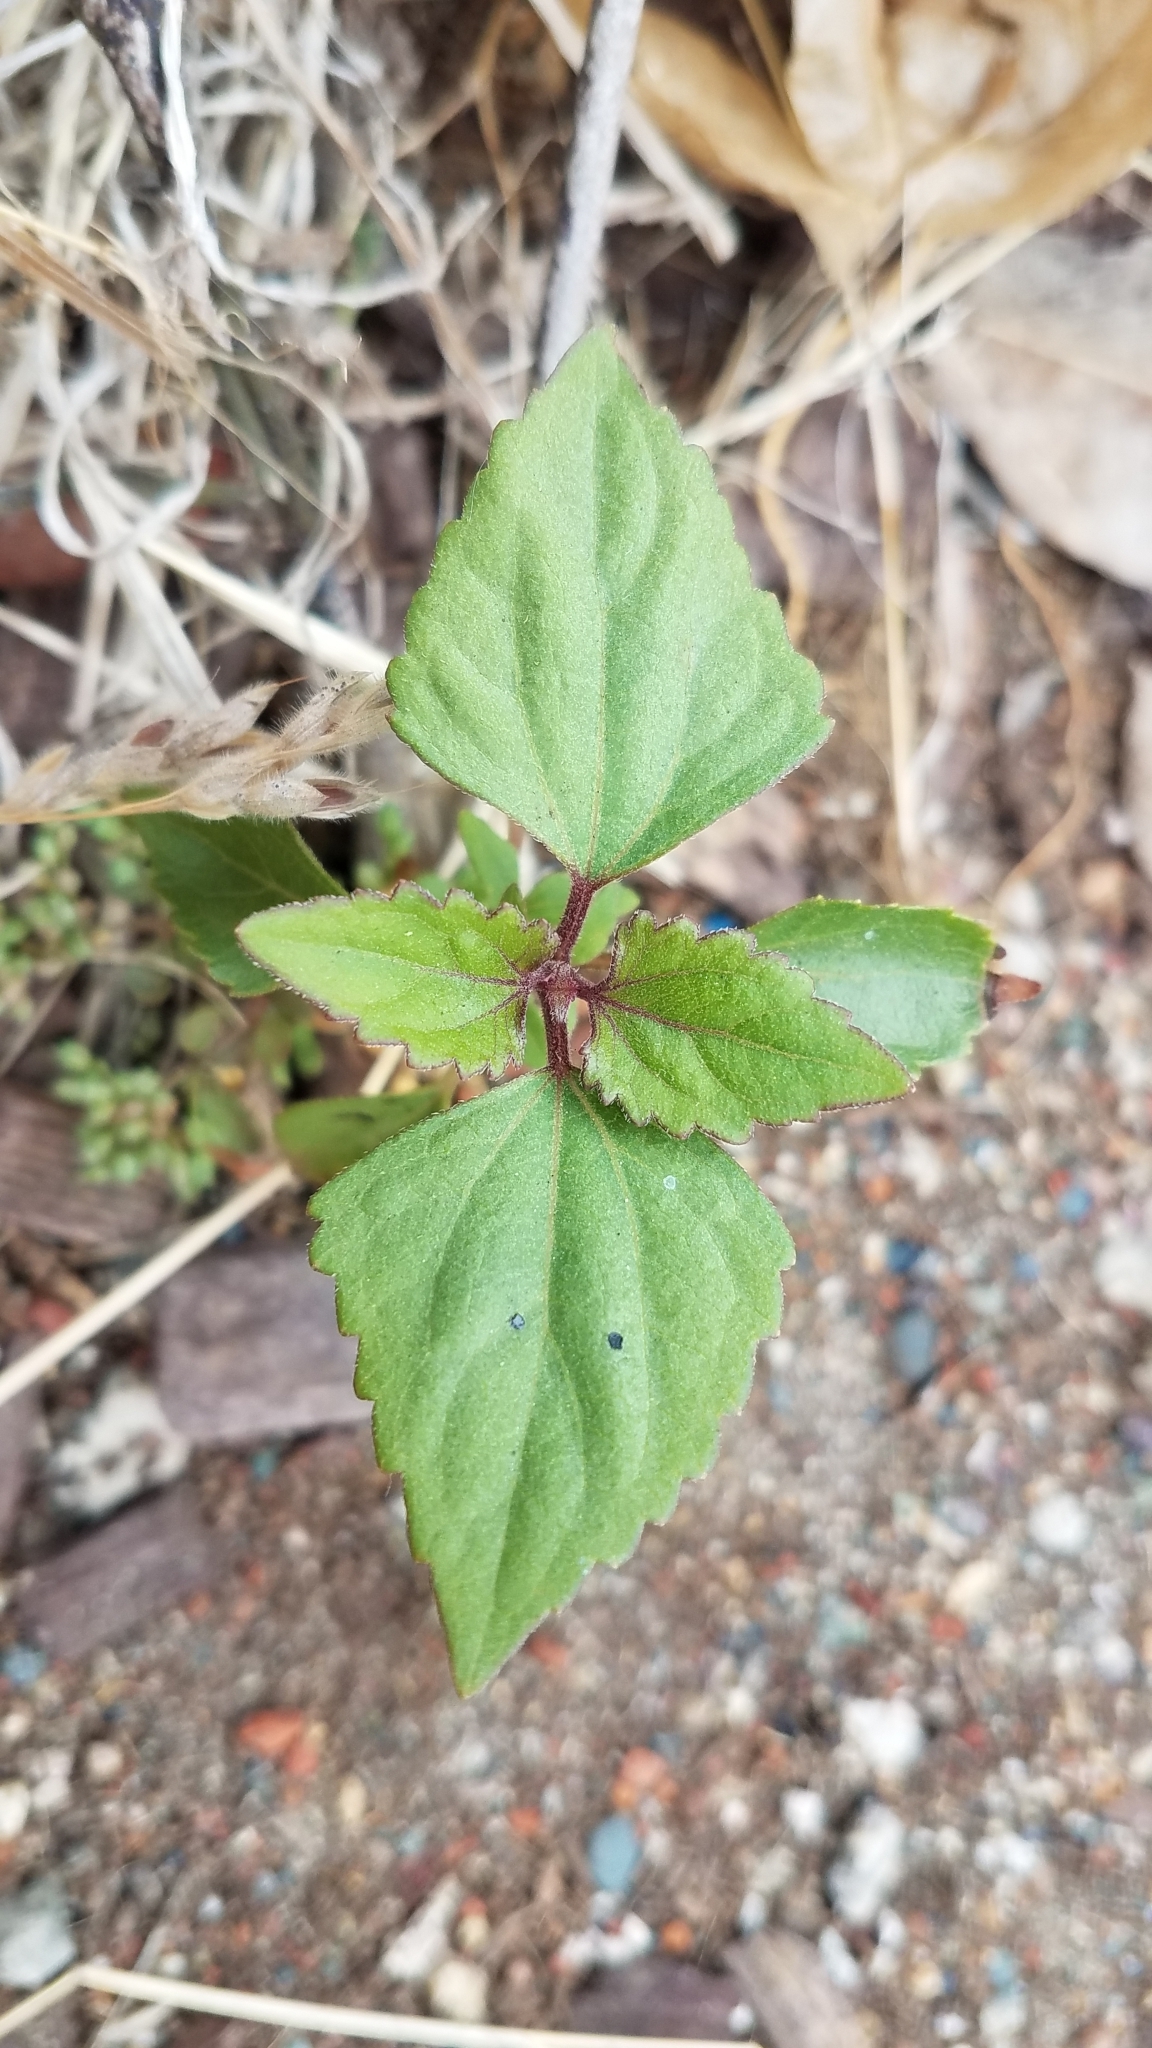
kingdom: Plantae
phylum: Tracheophyta
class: Magnoliopsida
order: Asterales
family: Asteraceae
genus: Ageratina
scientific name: Ageratina adenophora
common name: Sticky snakeroot
